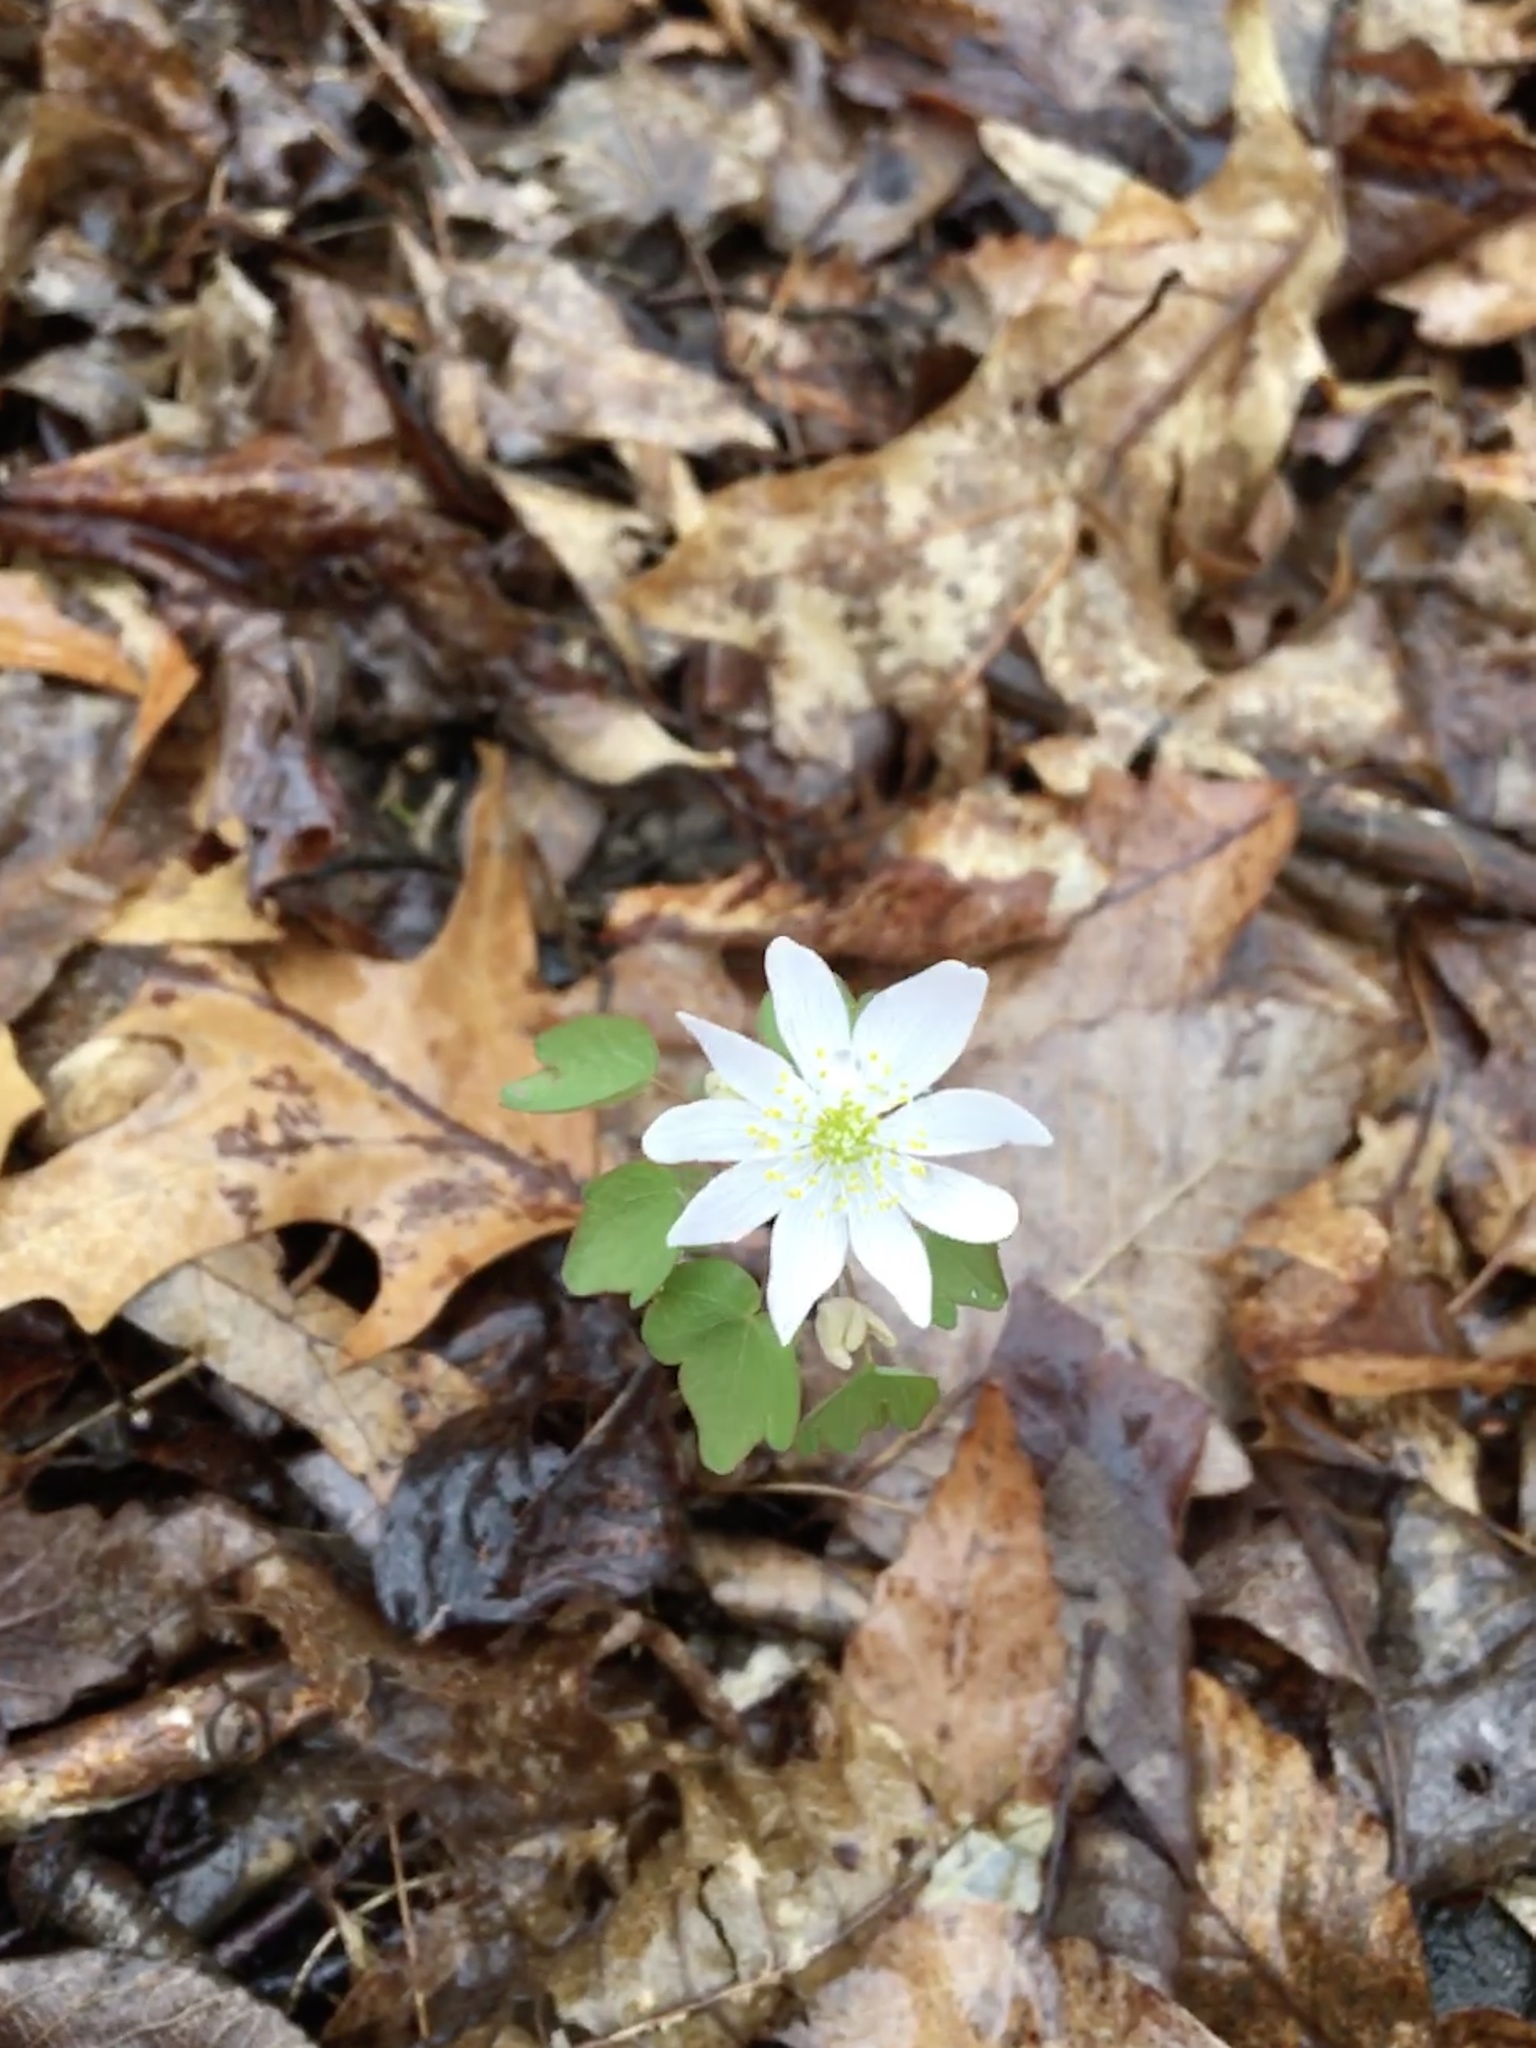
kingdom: Plantae
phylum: Tracheophyta
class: Magnoliopsida
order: Ranunculales
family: Ranunculaceae
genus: Thalictrum
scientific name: Thalictrum thalictroides
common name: Rue-anemone
